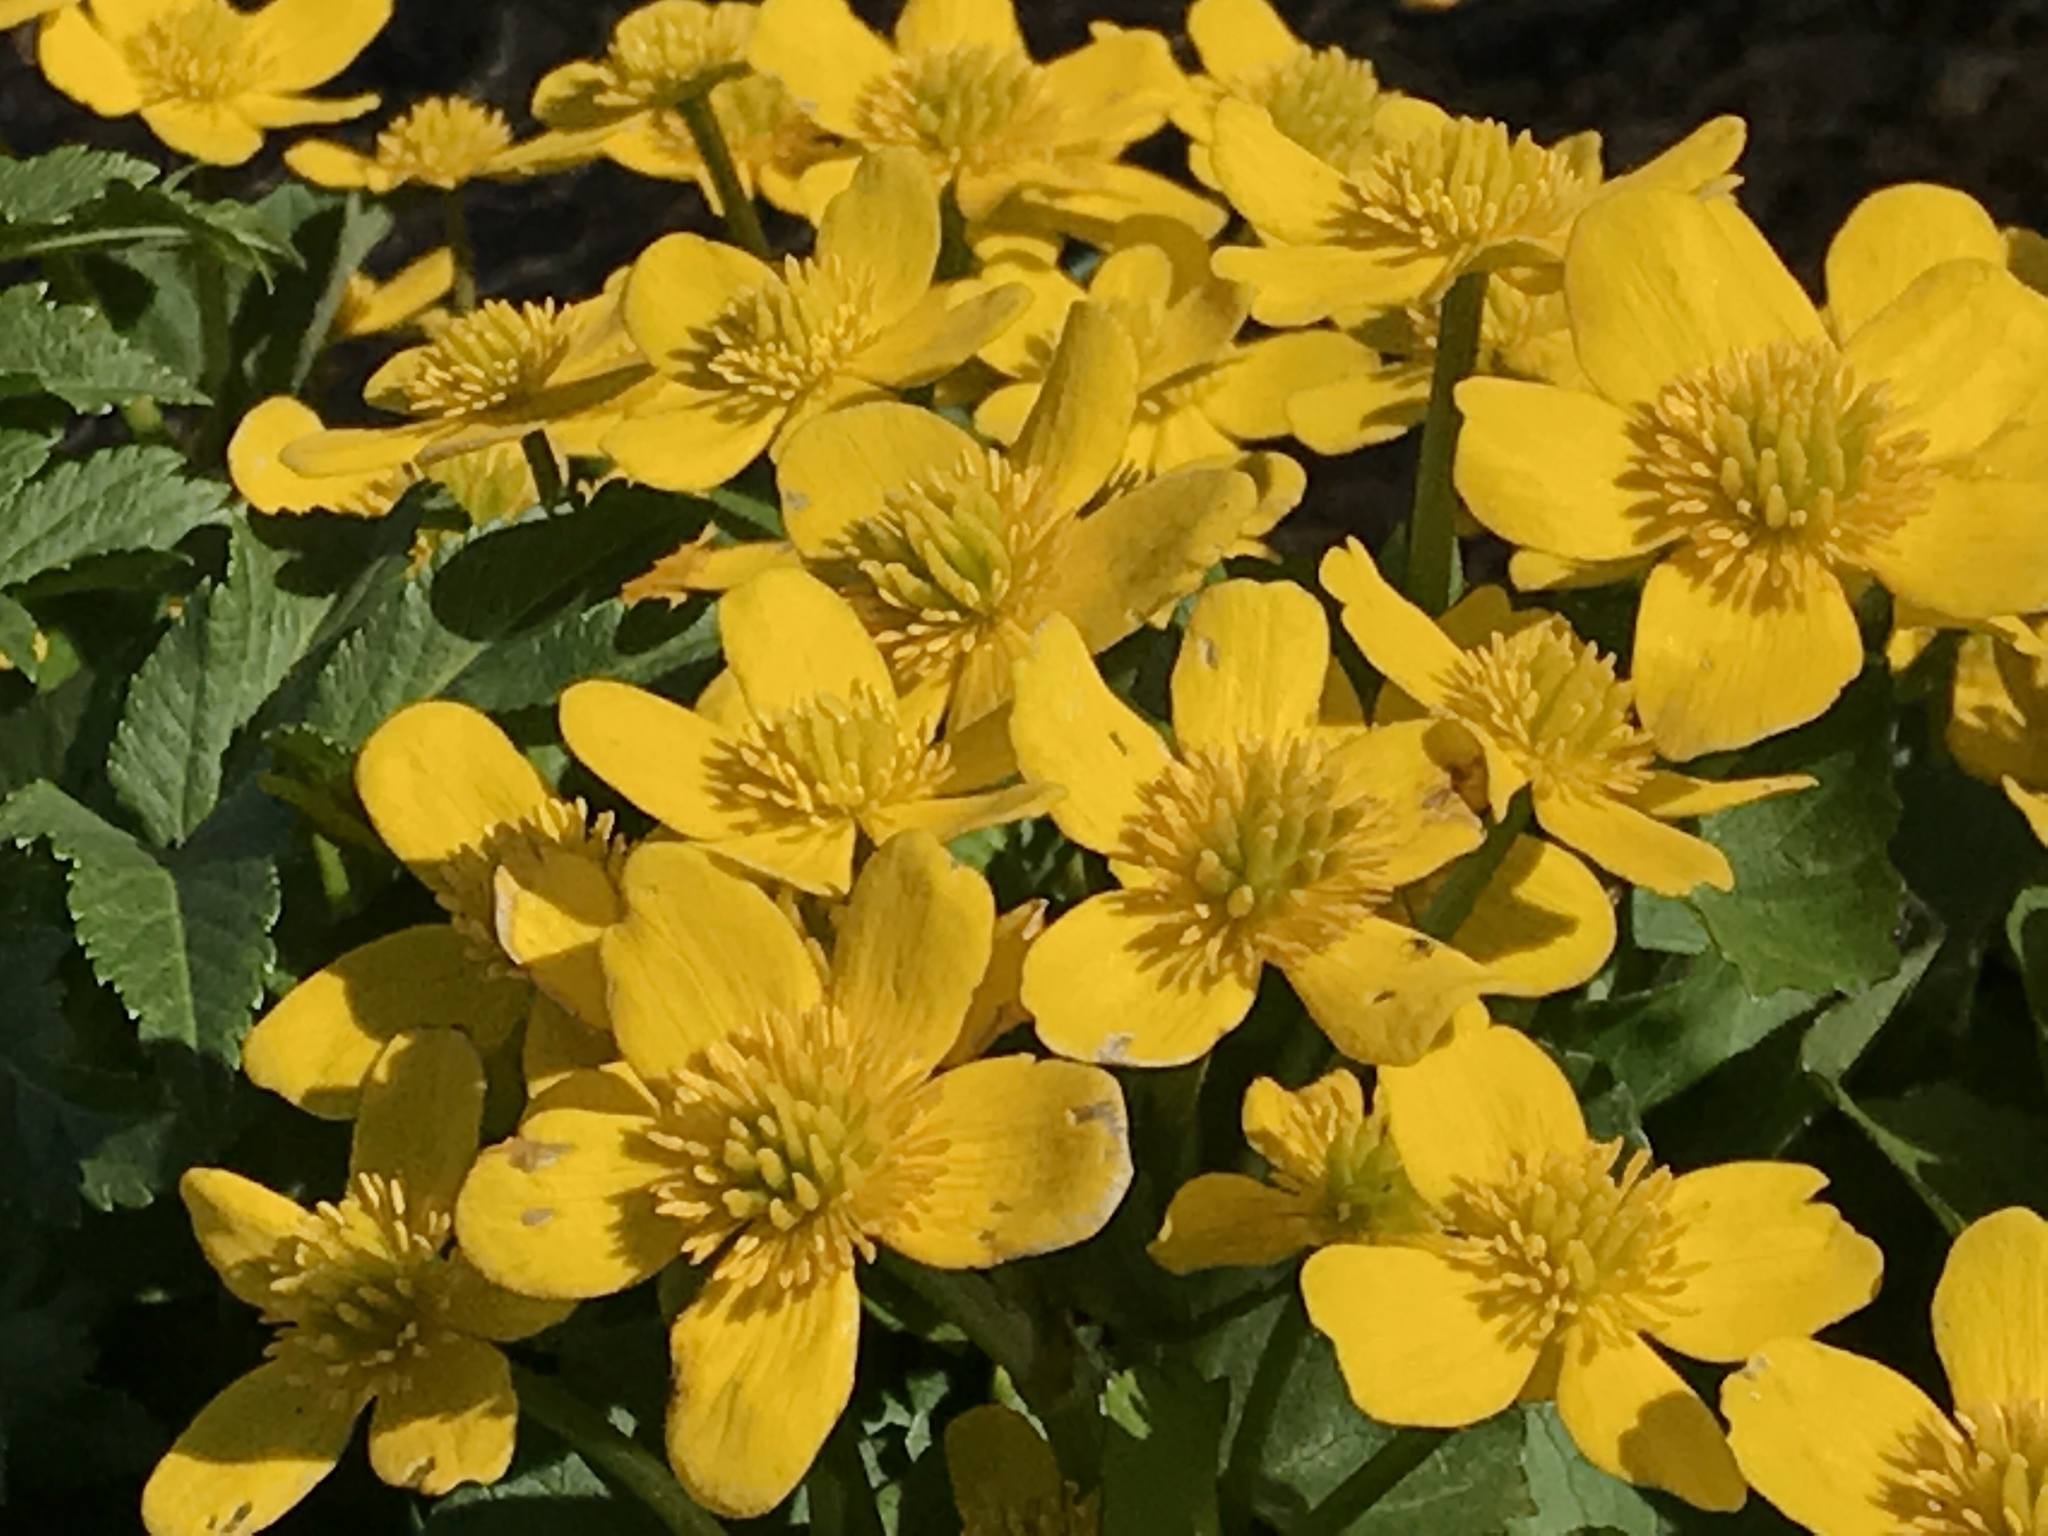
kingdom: Plantae
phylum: Tracheophyta
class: Magnoliopsida
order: Ranunculales
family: Ranunculaceae
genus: Caltha
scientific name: Caltha palustris
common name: Marsh marigold
